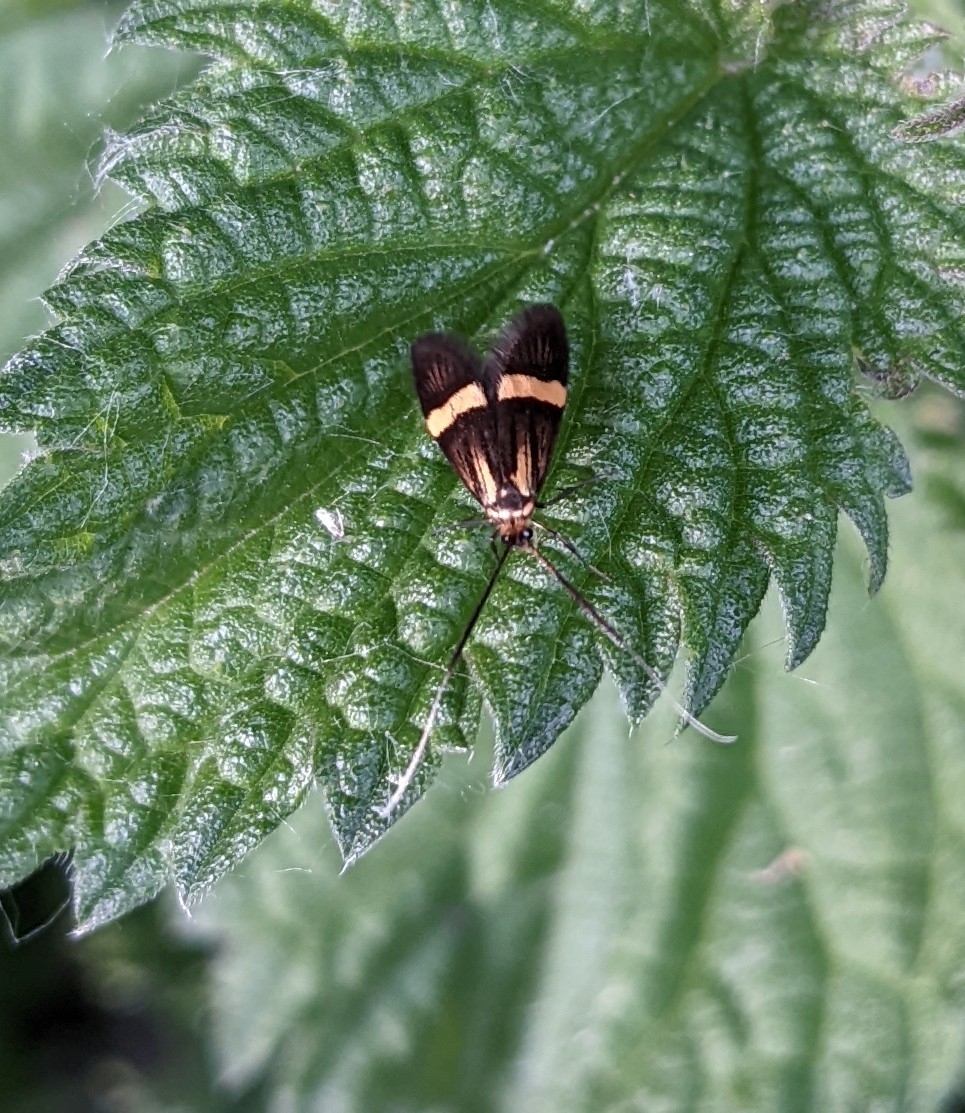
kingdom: Animalia
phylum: Arthropoda
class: Insecta
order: Lepidoptera
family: Adelidae
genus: Adela
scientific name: Adela croesella
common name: Small barred long-horn
